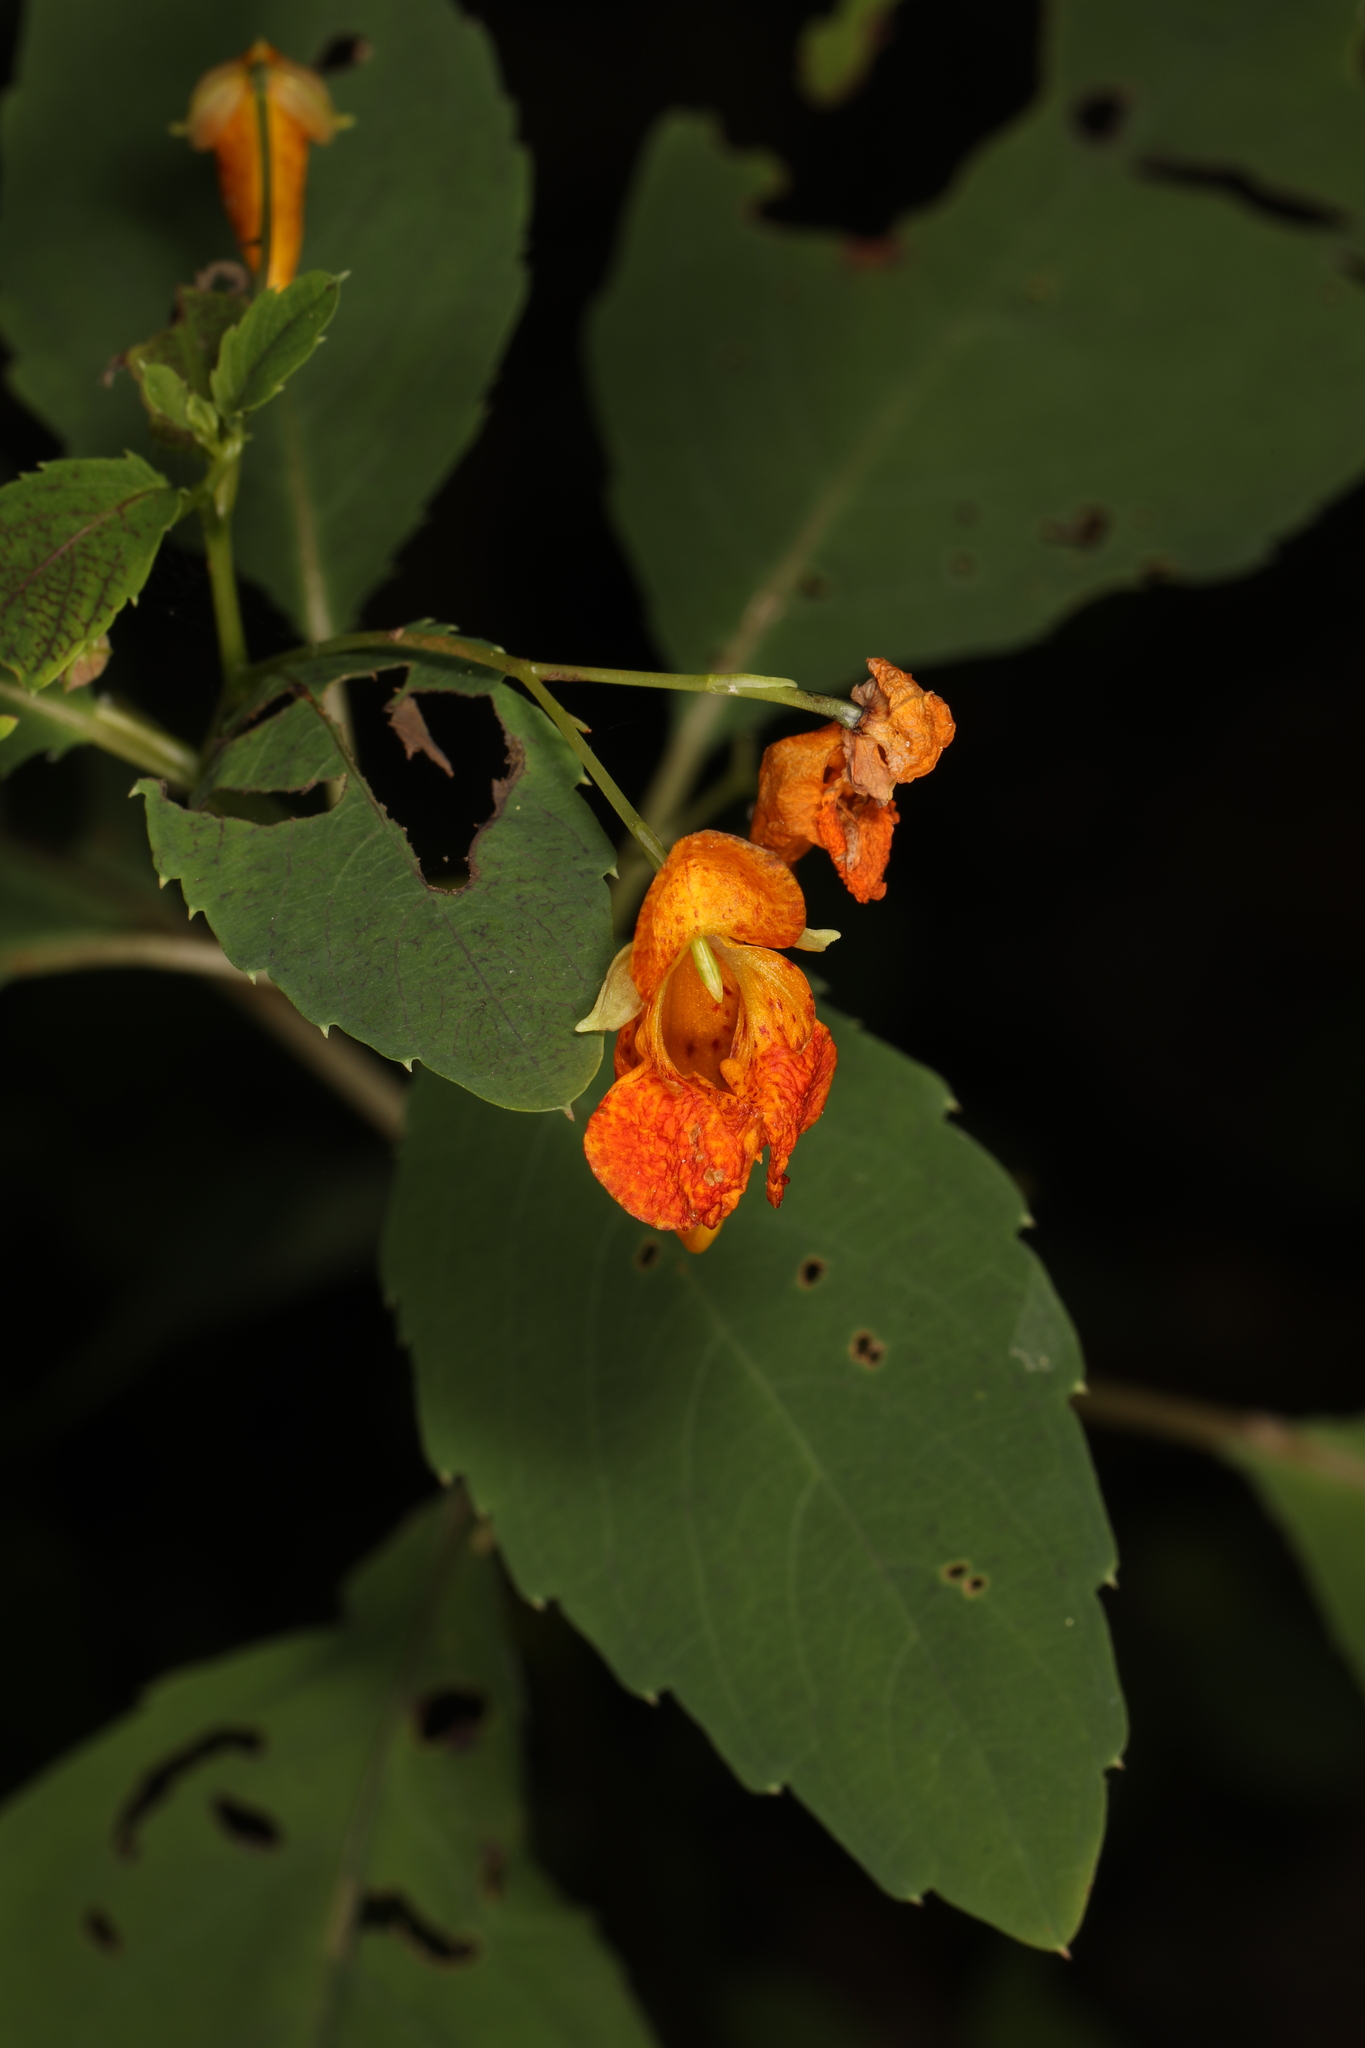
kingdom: Plantae
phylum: Tracheophyta
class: Magnoliopsida
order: Ericales
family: Balsaminaceae
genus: Impatiens
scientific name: Impatiens capensis
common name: Orange balsam
